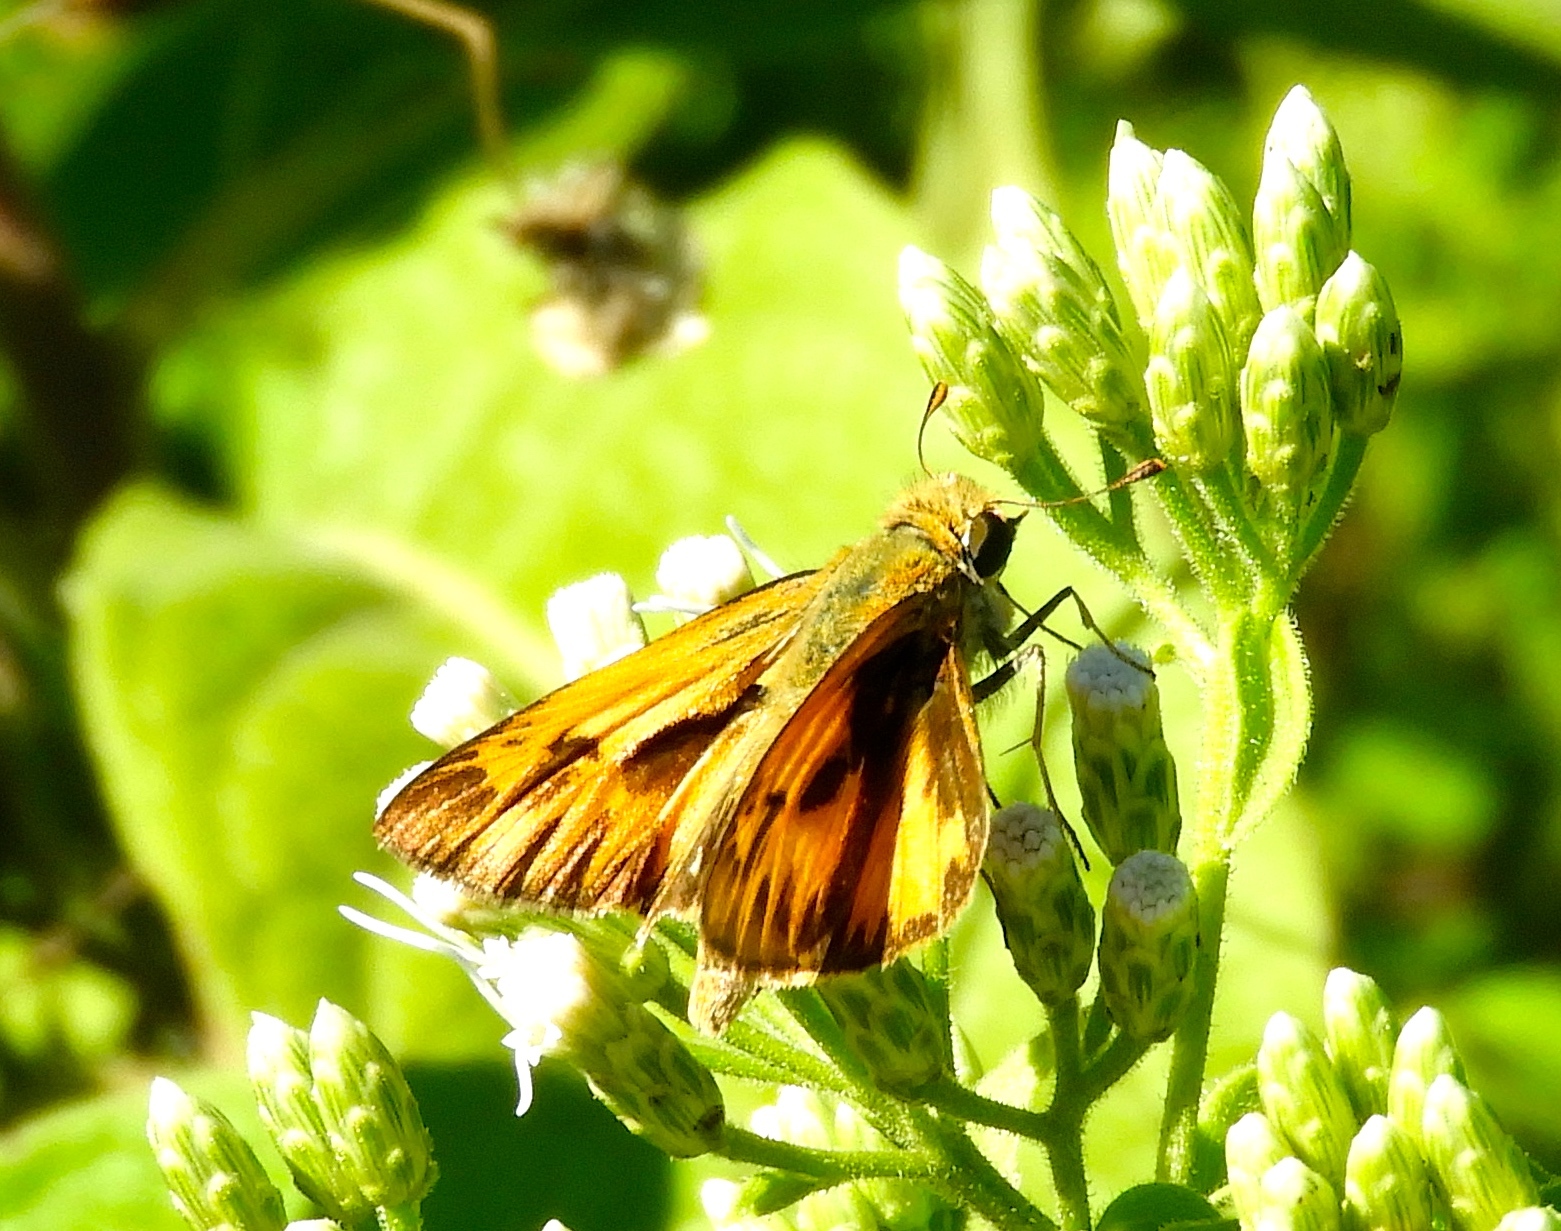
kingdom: Animalia
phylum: Arthropoda
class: Insecta
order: Lepidoptera
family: Hesperiidae
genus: Hylephila
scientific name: Hylephila phyleus
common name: Fiery skipper
